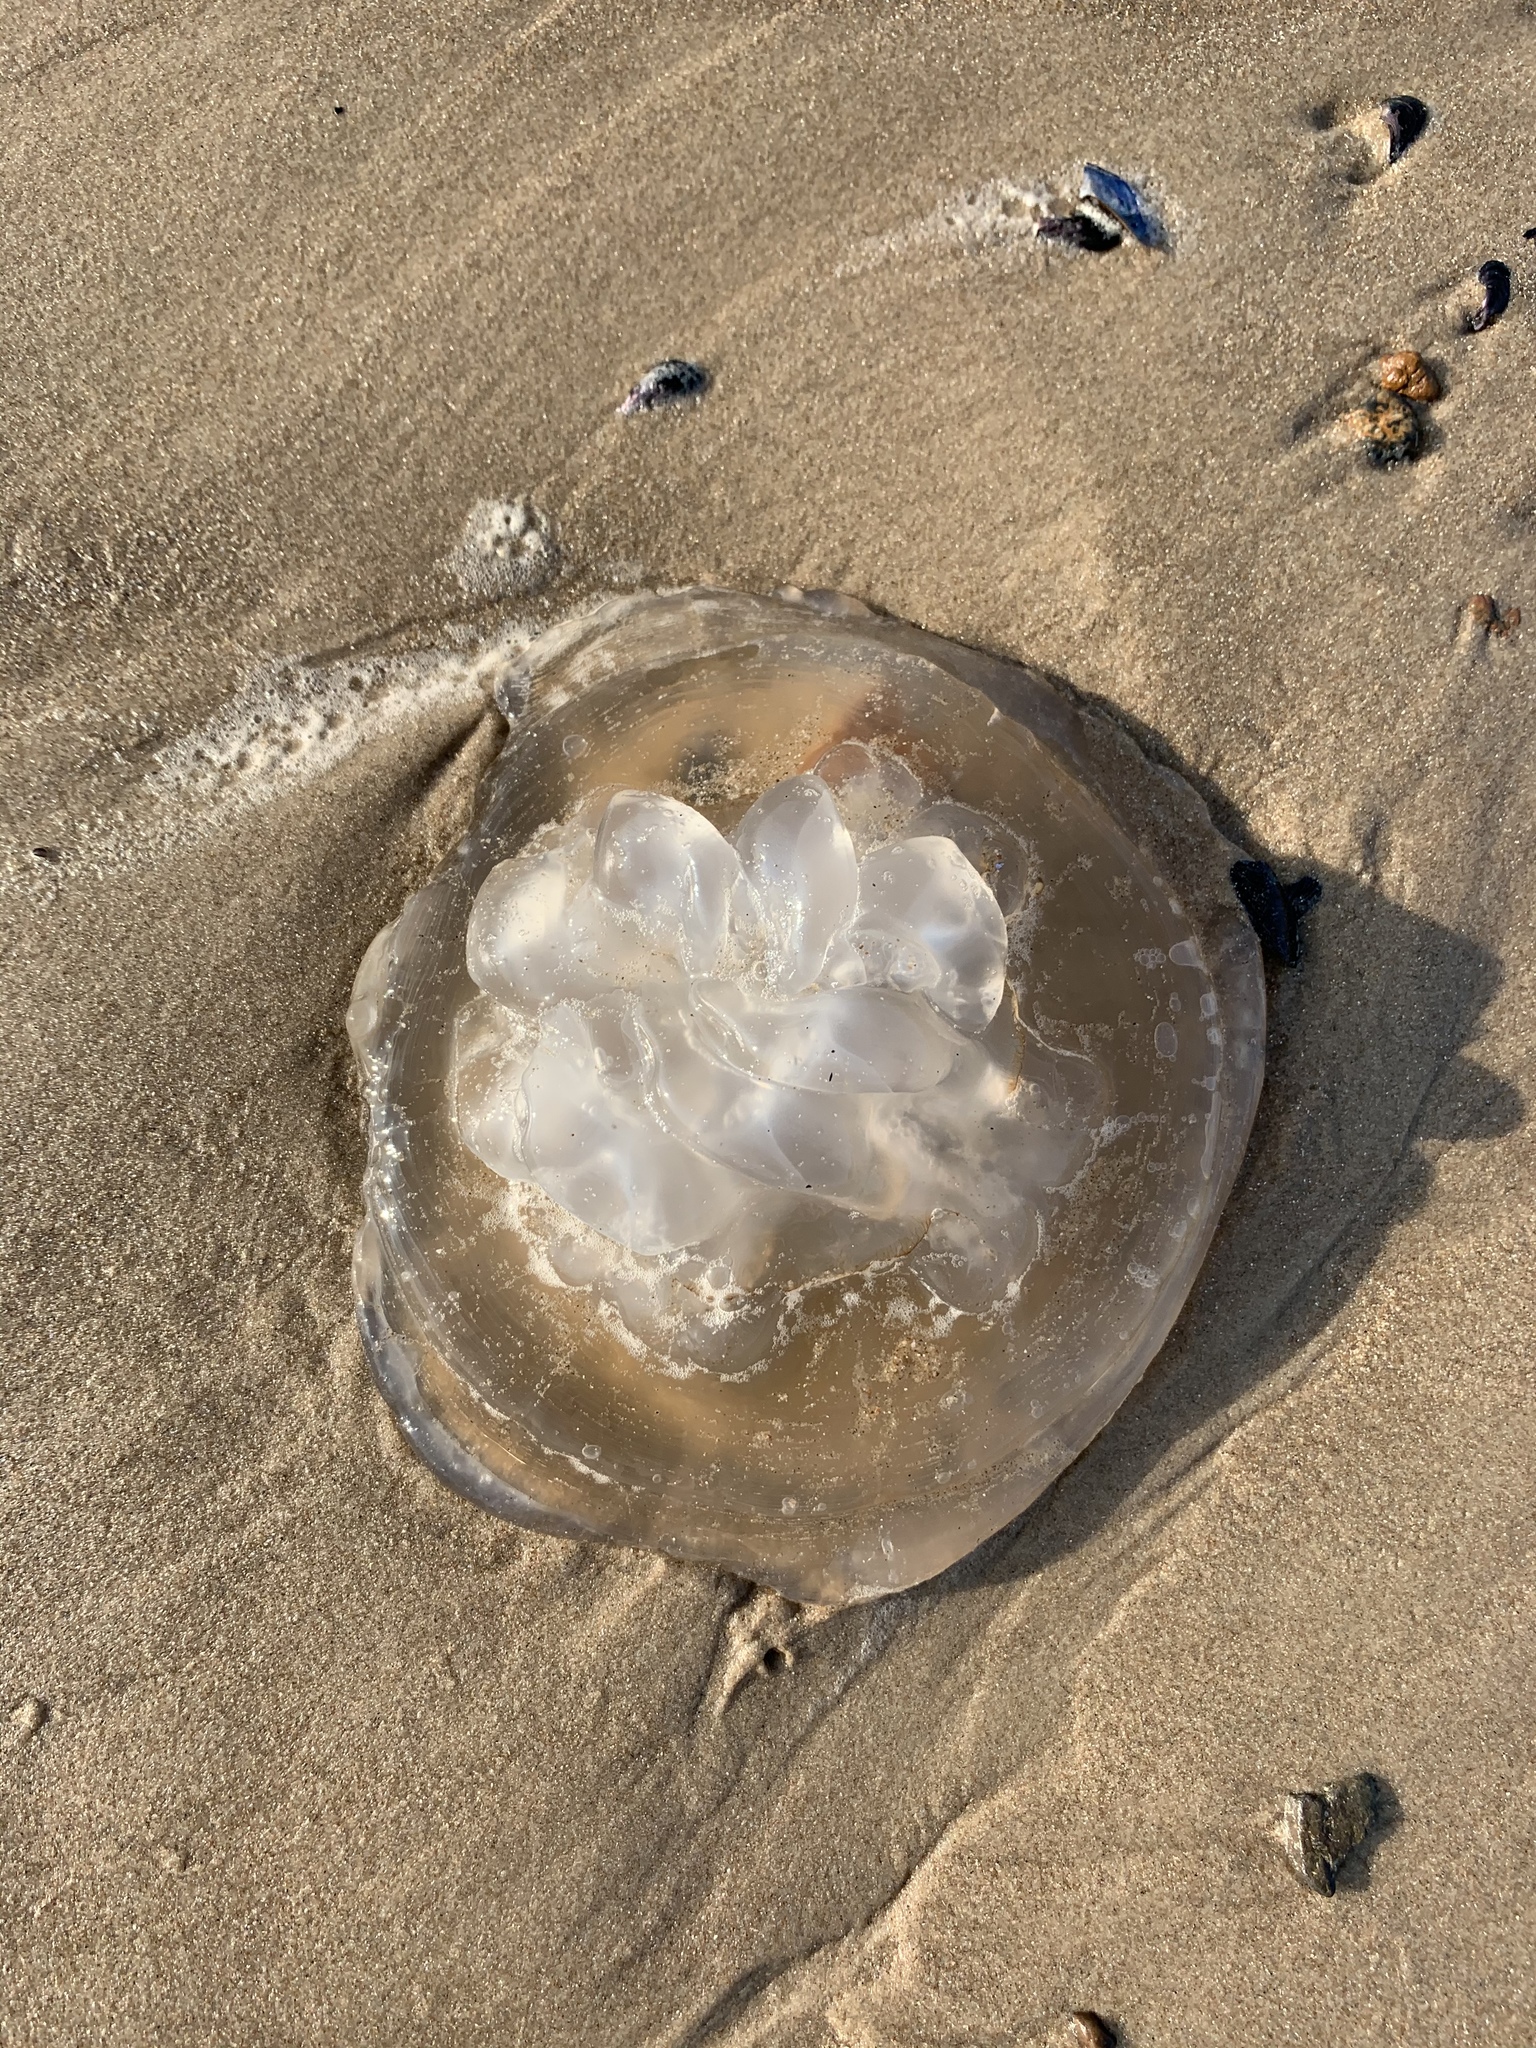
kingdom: Animalia
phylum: Cnidaria
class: Scyphozoa
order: Rhizostomeae
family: Lychnorhizidae
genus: Lychnorhiza
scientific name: Lychnorhiza lucerna
